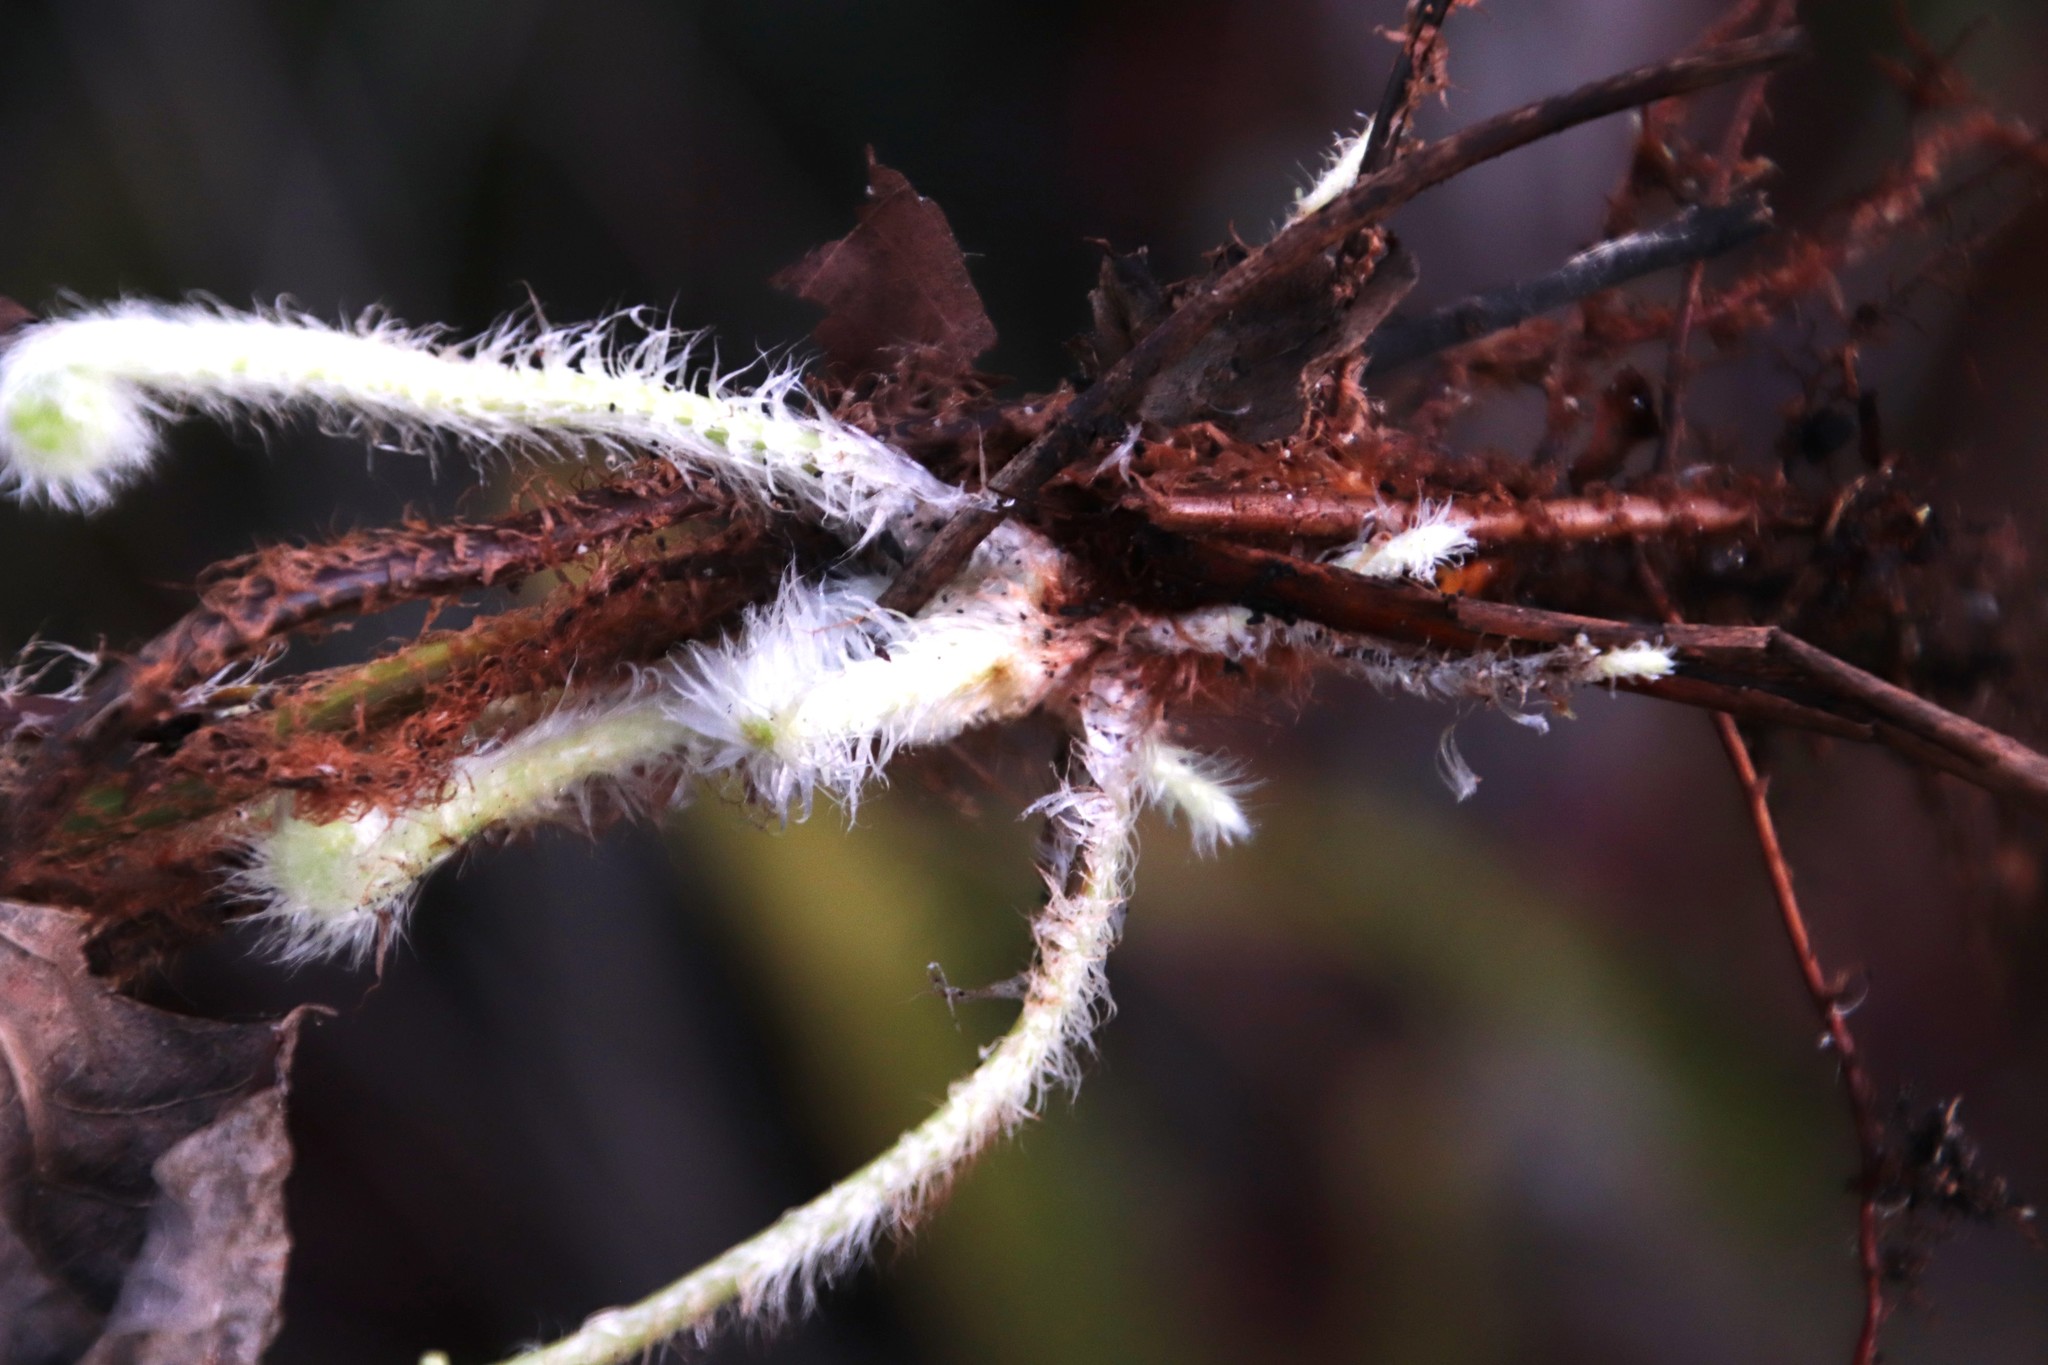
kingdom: Plantae
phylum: Tracheophyta
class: Polypodiopsida
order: Polypodiales
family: Nephrolepidaceae
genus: Nephrolepis
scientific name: Nephrolepis cordifolia
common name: Narrow swordfern
